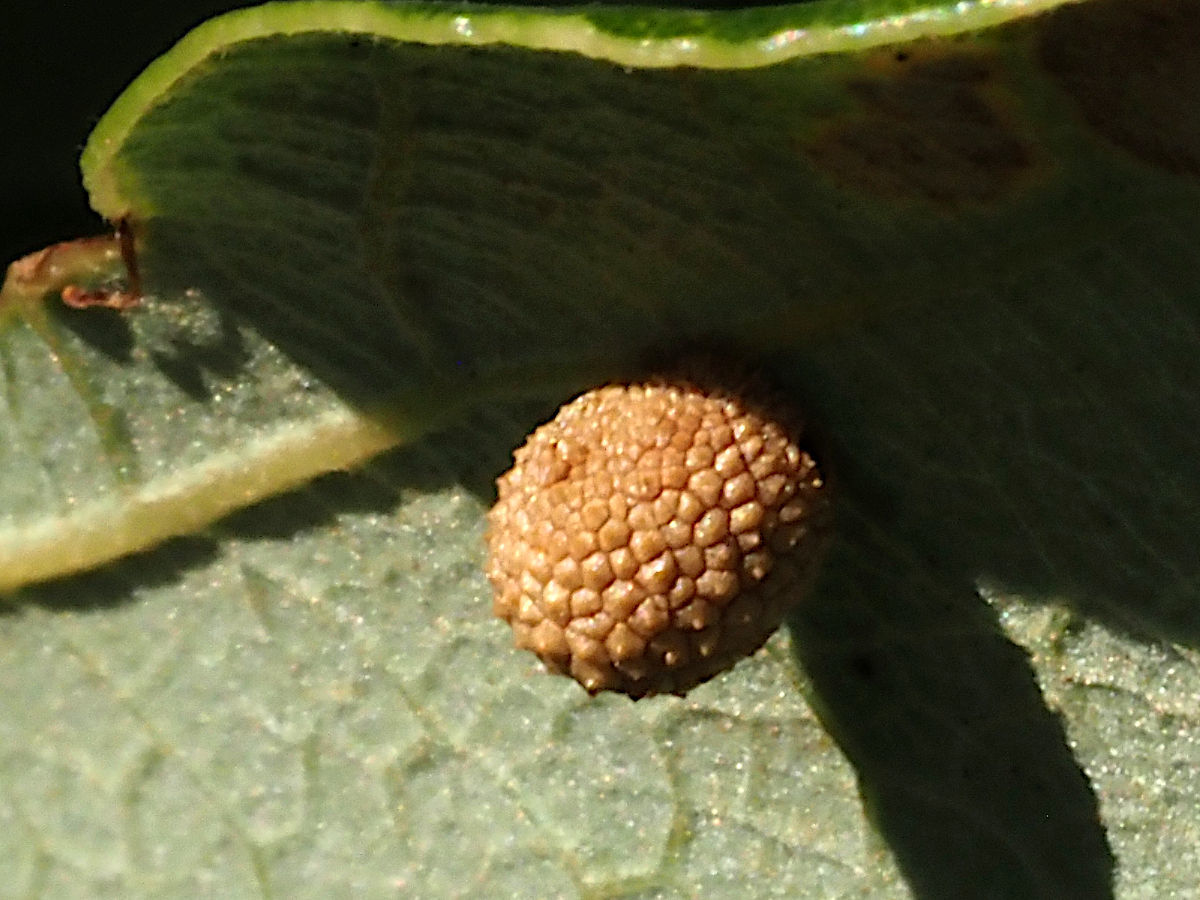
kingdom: Animalia
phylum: Arthropoda
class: Insecta
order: Hymenoptera
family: Cynipidae
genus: Acraspis
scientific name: Acraspis quercushirta
